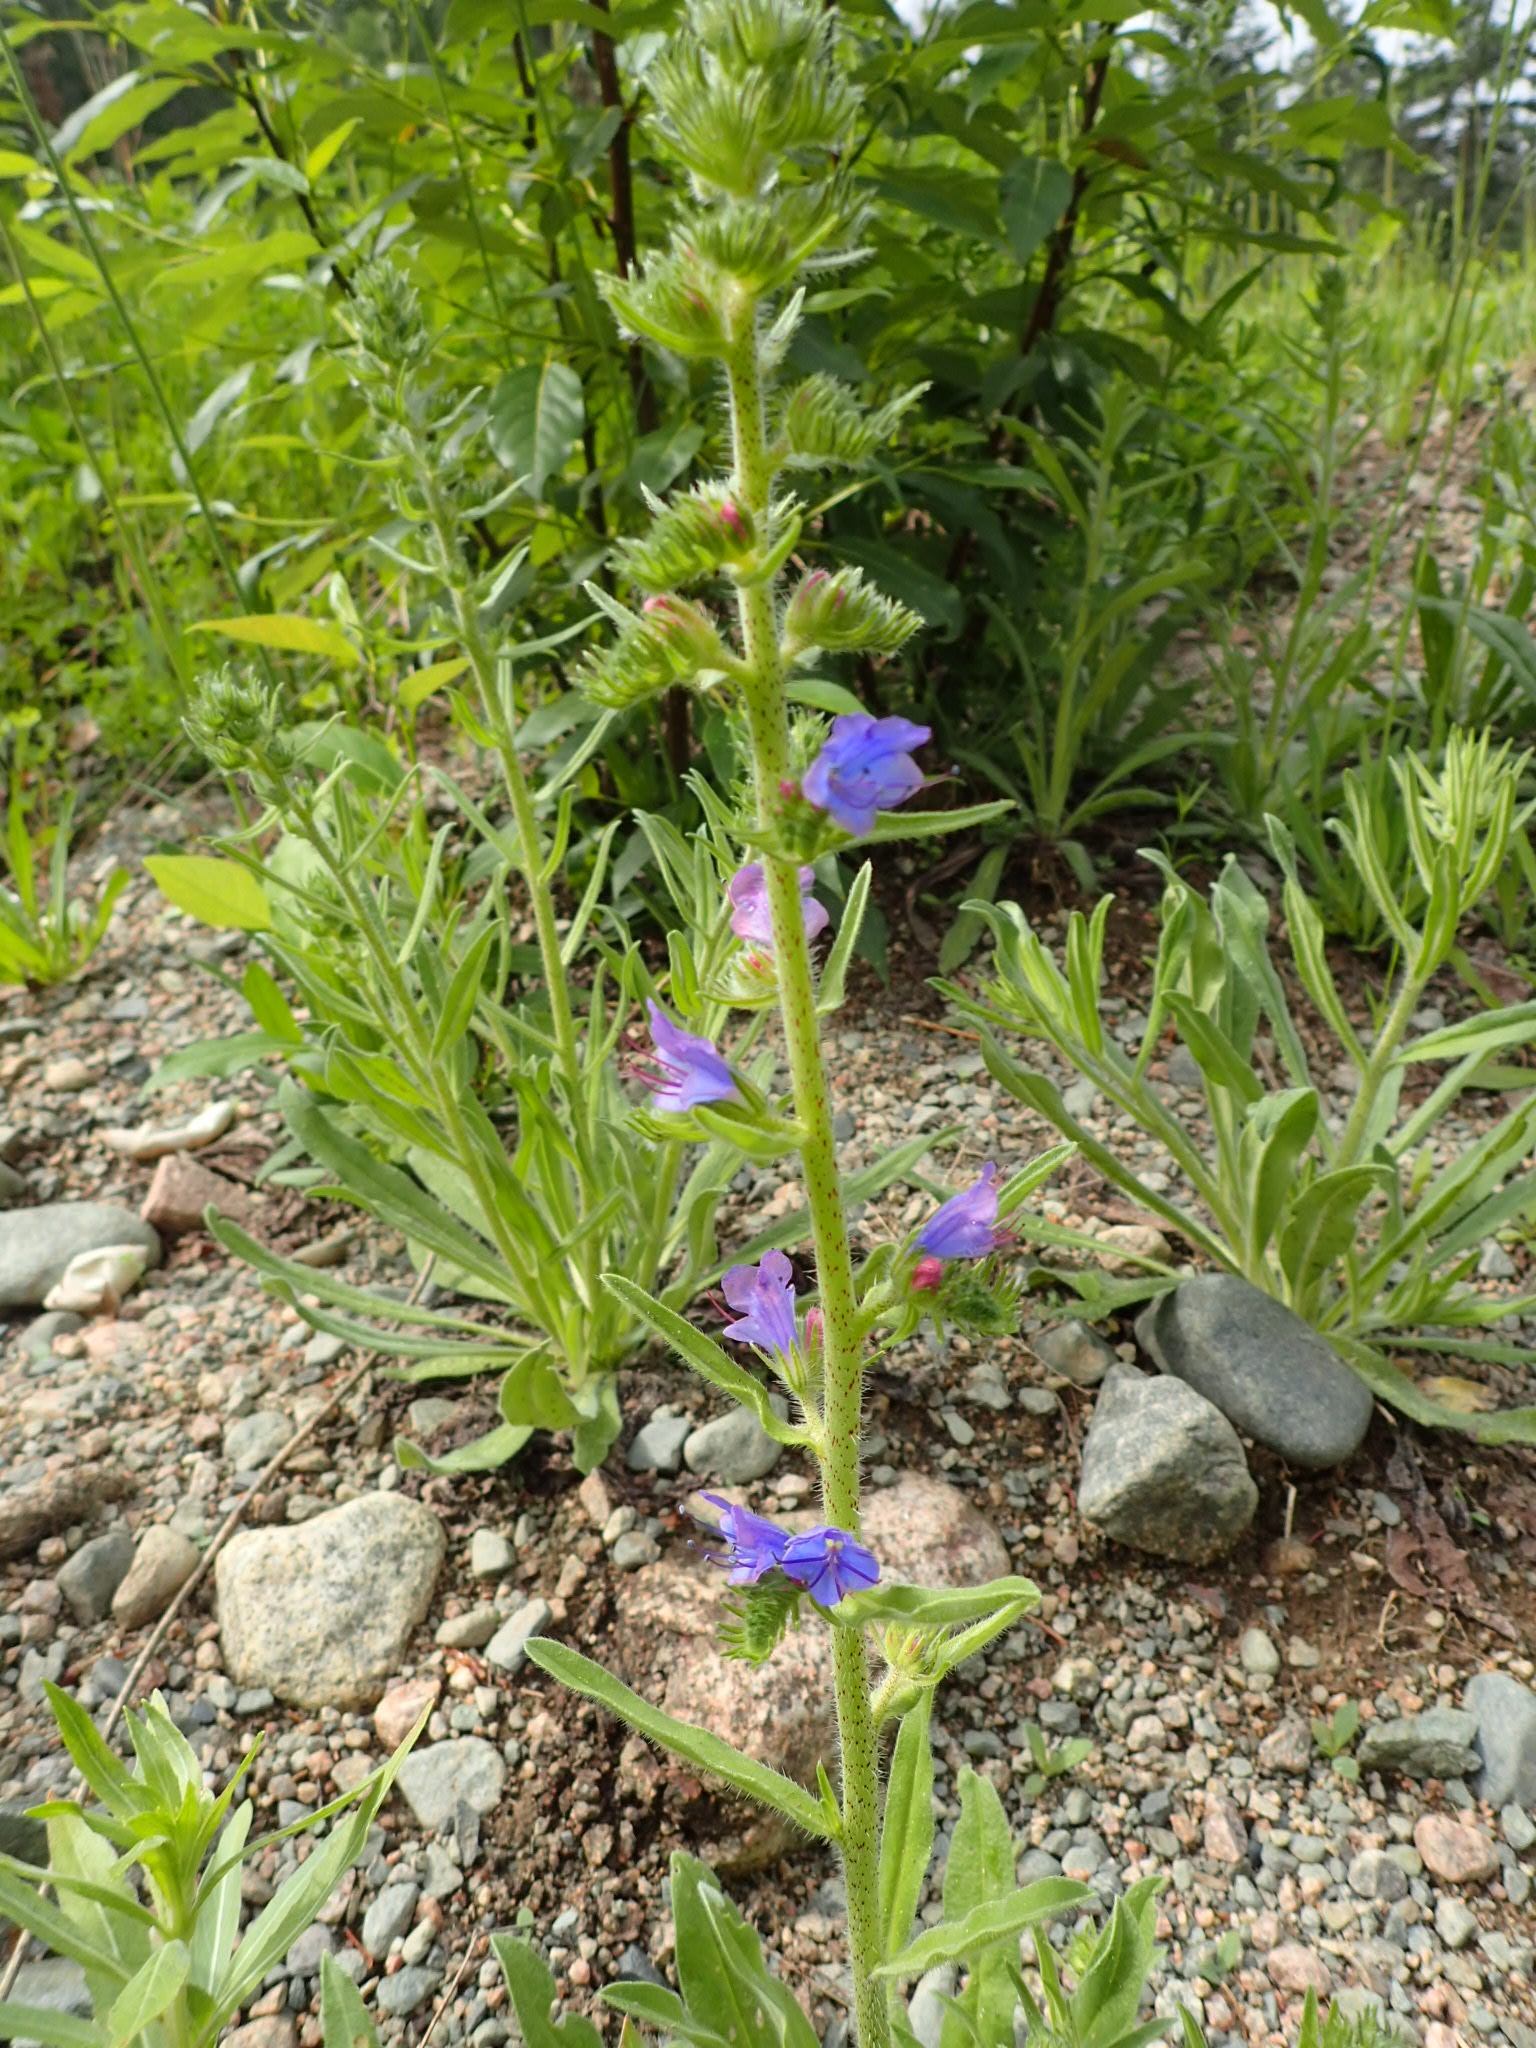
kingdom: Plantae
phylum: Tracheophyta
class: Magnoliopsida
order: Boraginales
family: Boraginaceae
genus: Echium
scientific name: Echium vulgare
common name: Common viper's bugloss
